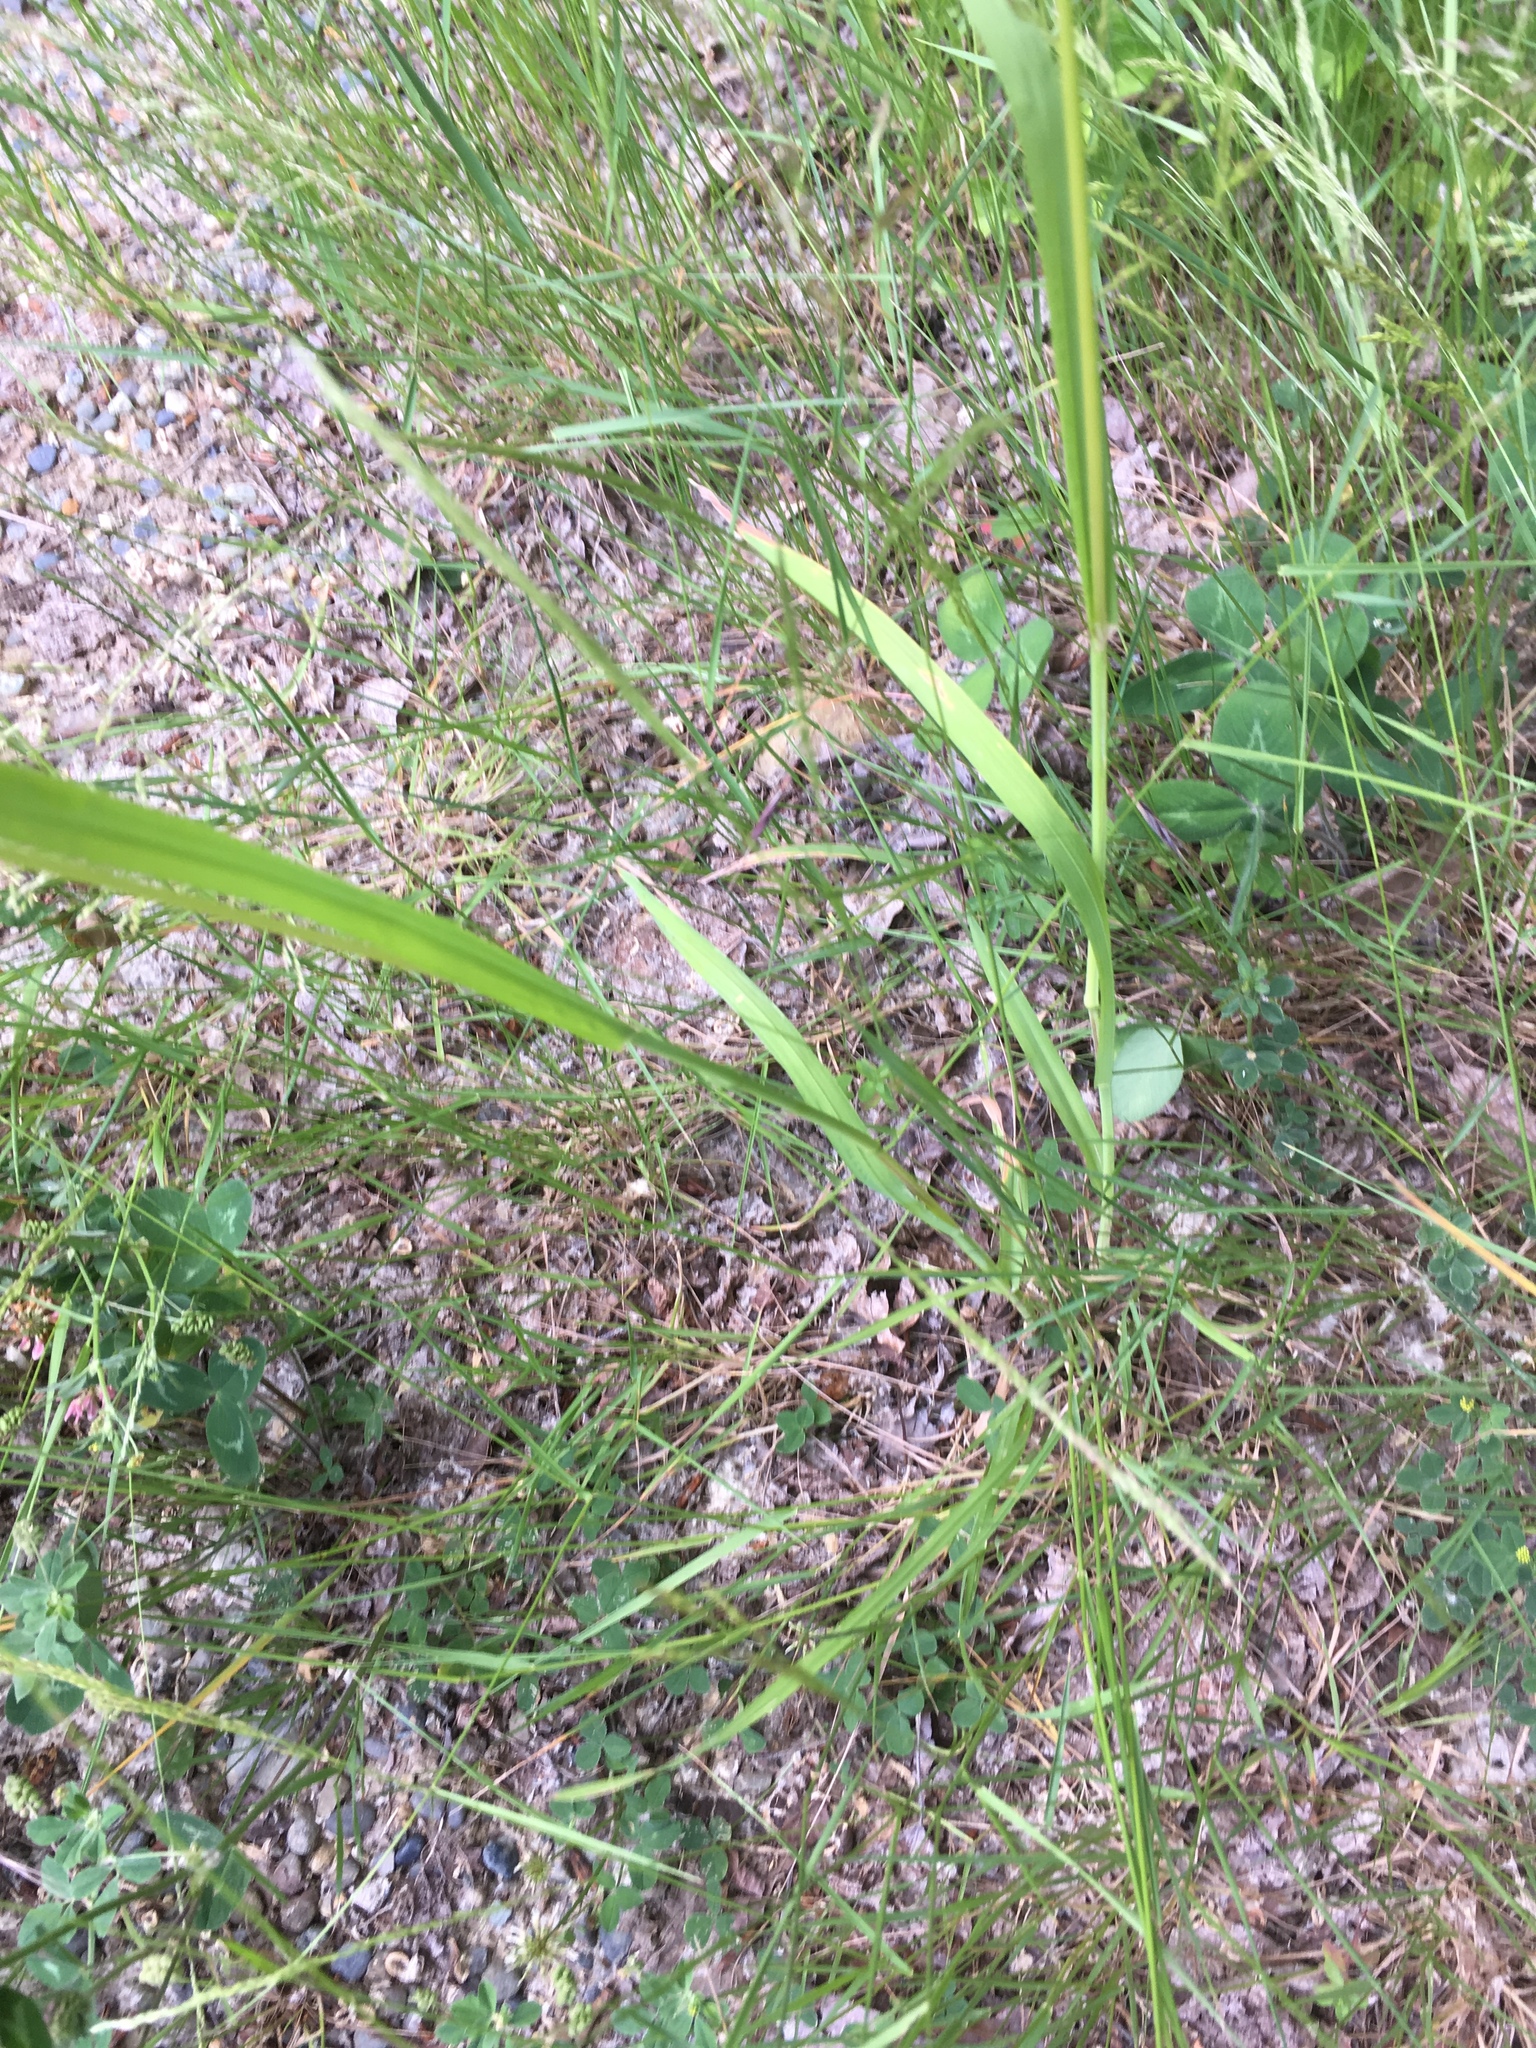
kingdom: Plantae
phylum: Tracheophyta
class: Liliopsida
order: Poales
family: Poaceae
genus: Dactylis
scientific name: Dactylis glomerata
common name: Orchardgrass
